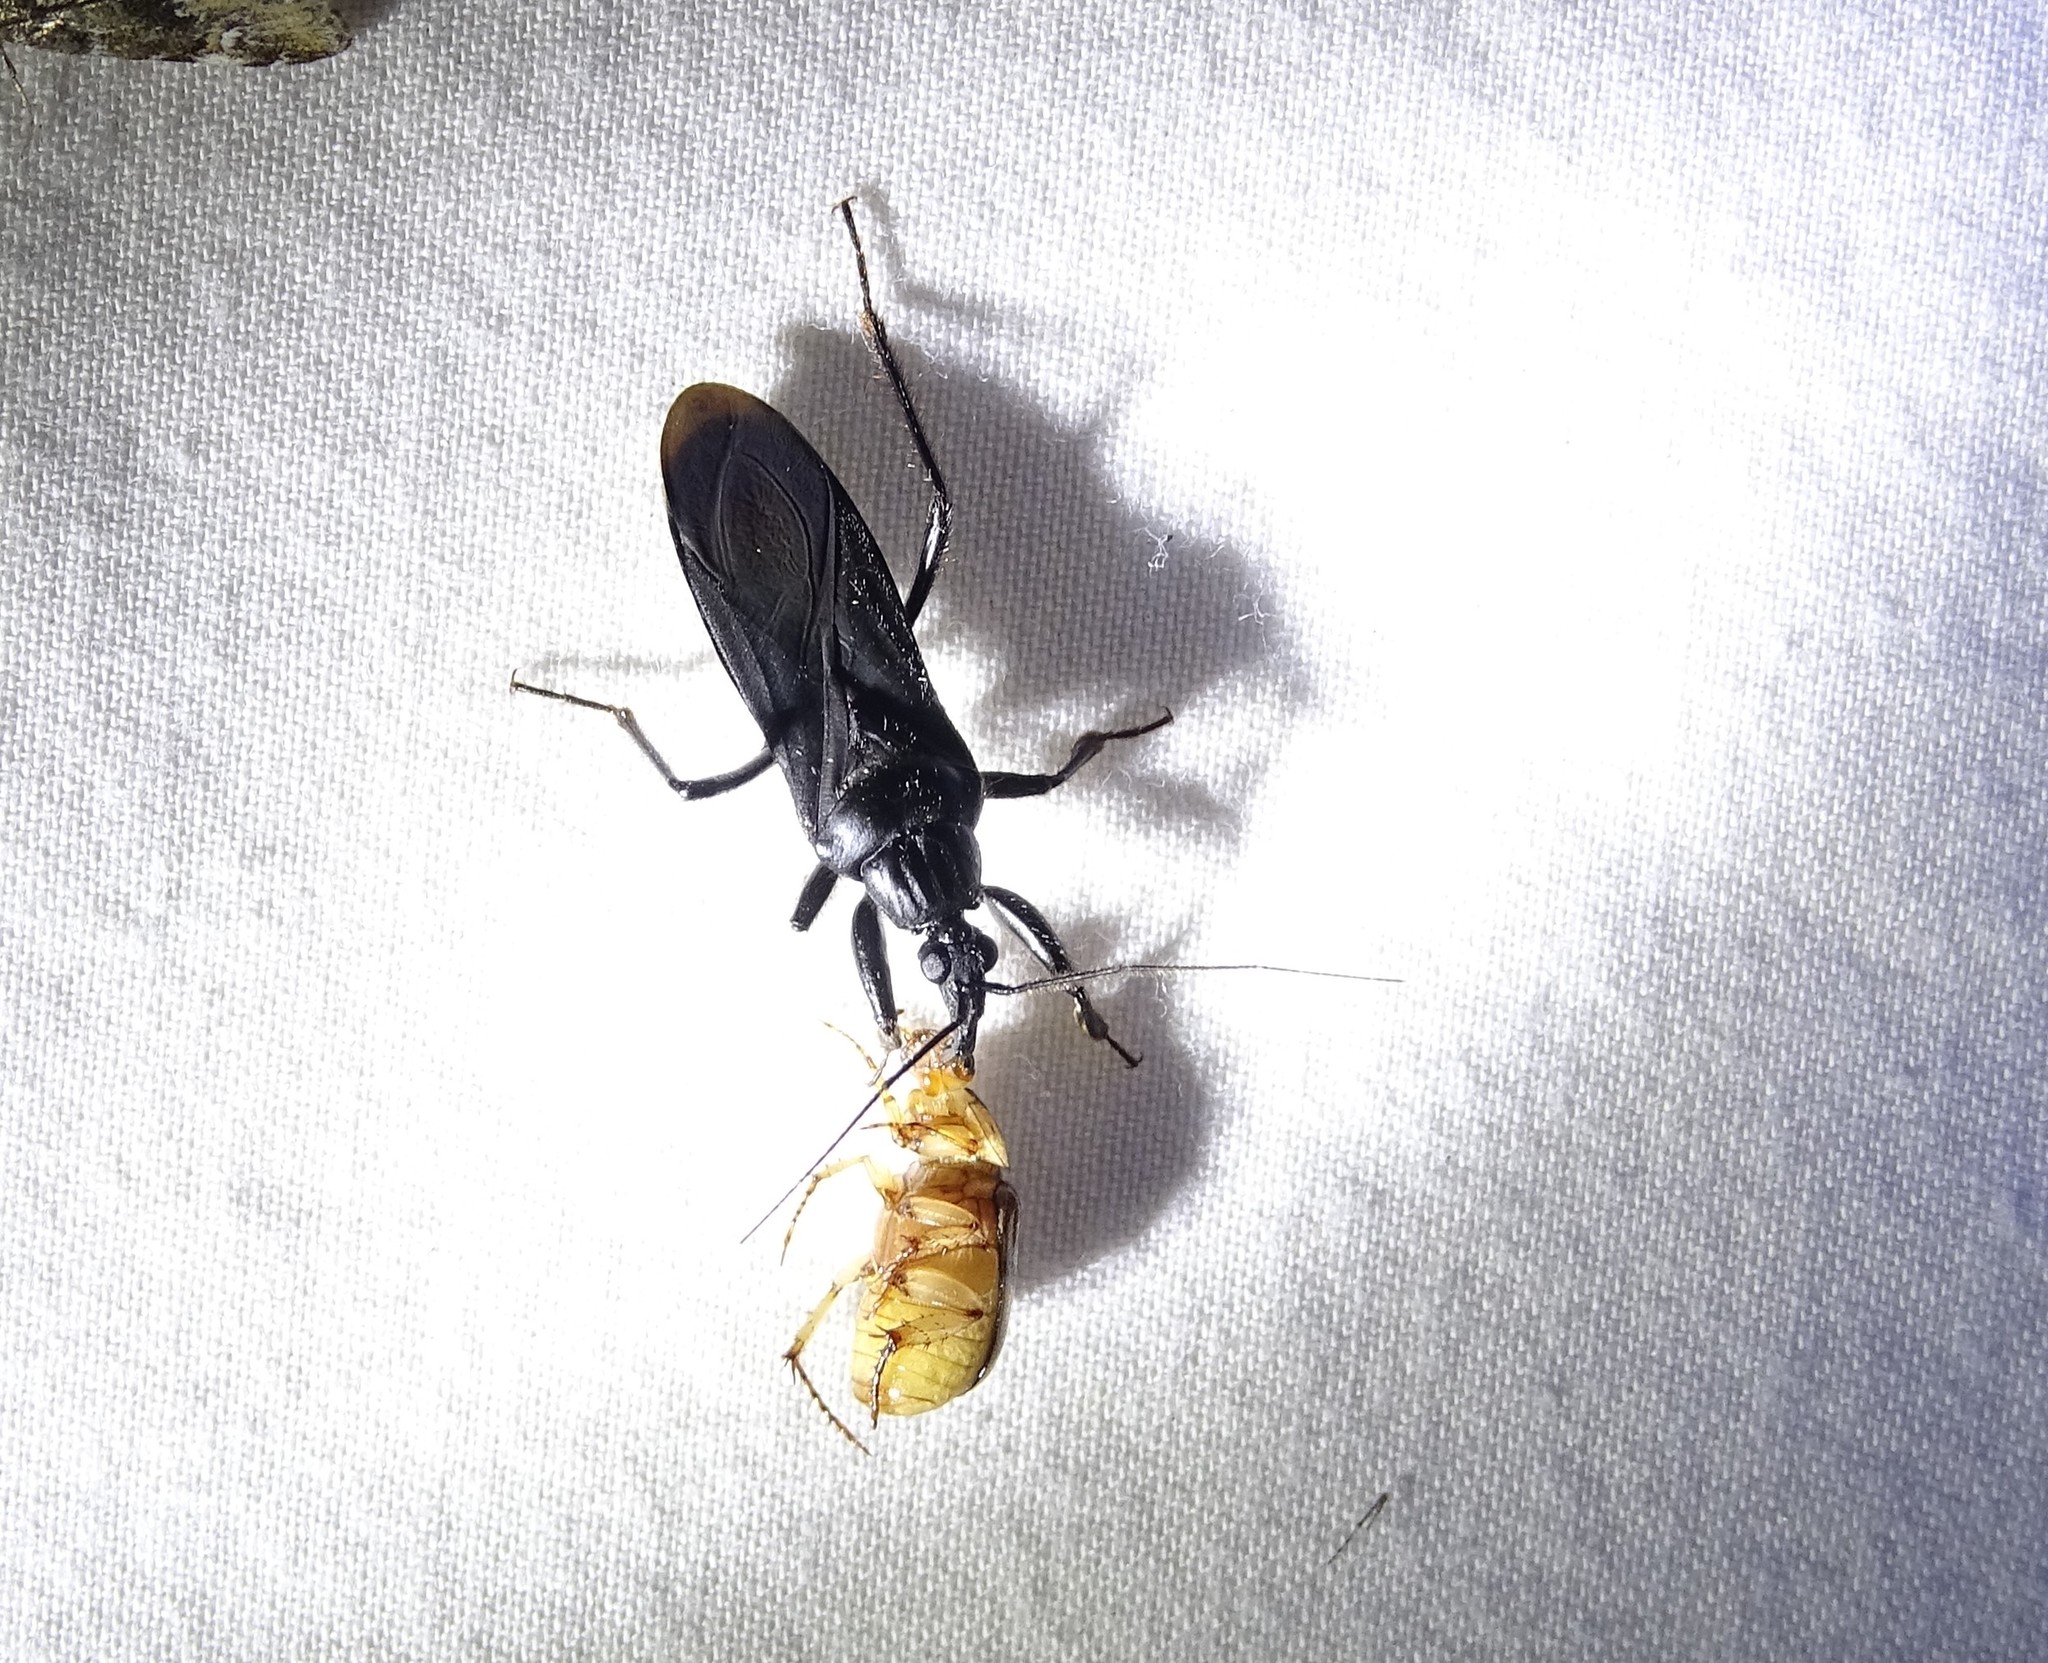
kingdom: Animalia
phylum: Arthropoda
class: Insecta
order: Hemiptera
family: Reduviidae
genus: Melanolestes
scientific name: Melanolestes picipes
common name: Assassin bug
